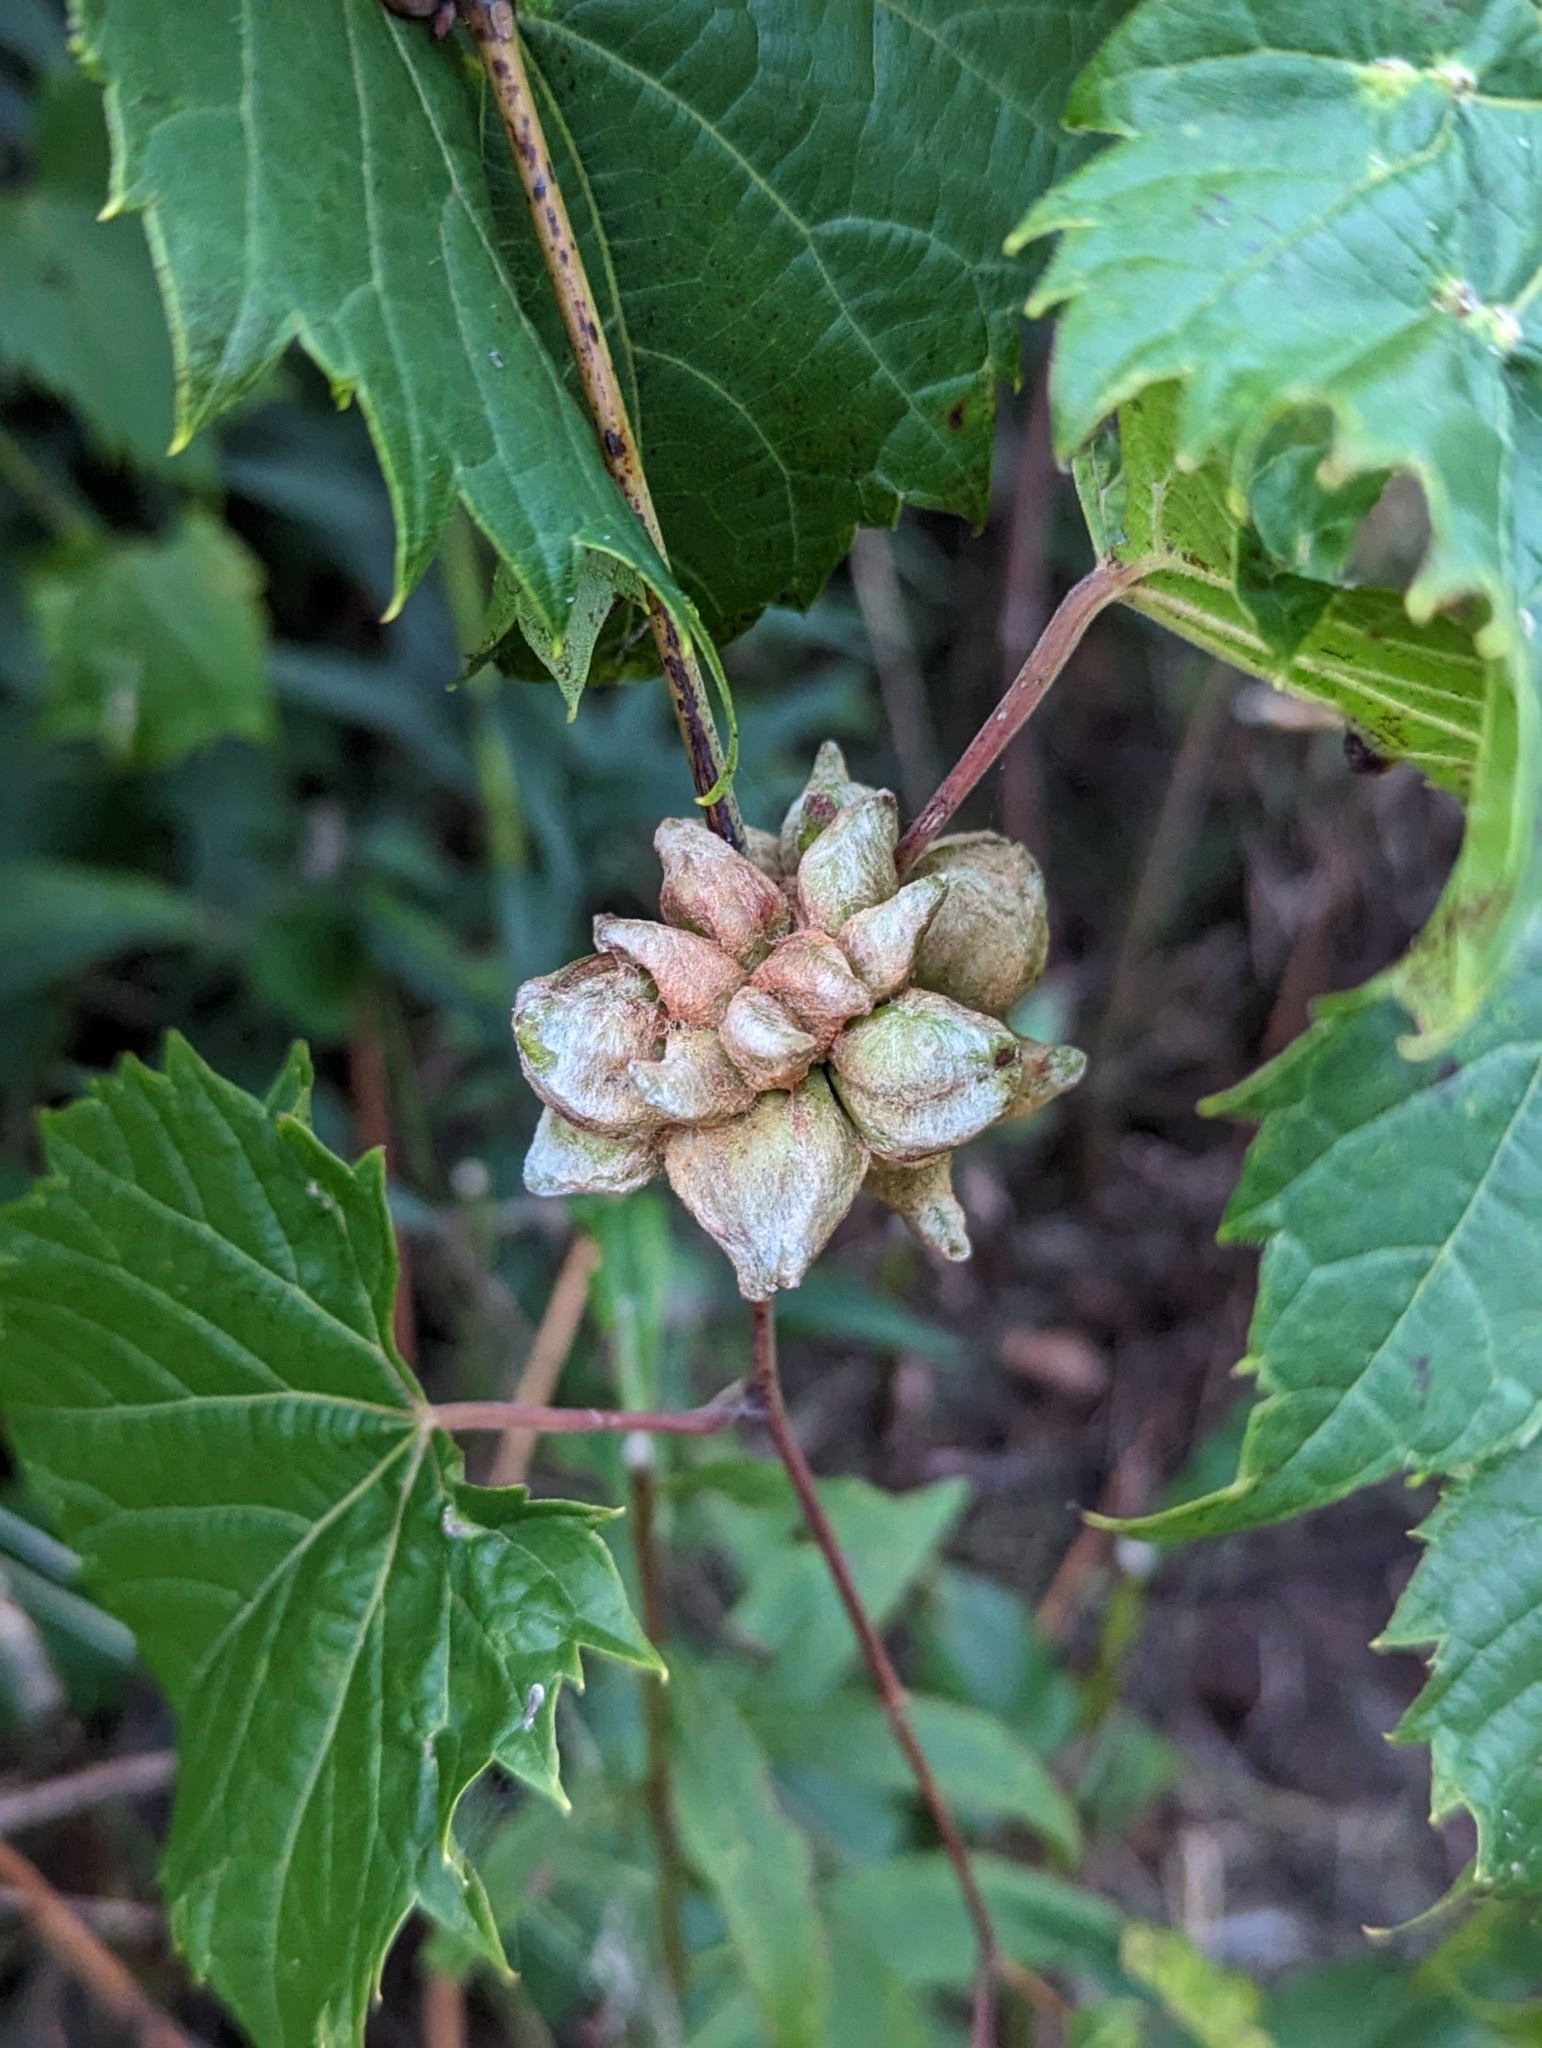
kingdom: Animalia
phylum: Arthropoda
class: Insecta
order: Diptera
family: Cecidomyiidae
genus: Ampelomyia
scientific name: Ampelomyia vitiscoryloides
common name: Grape filbert gall
